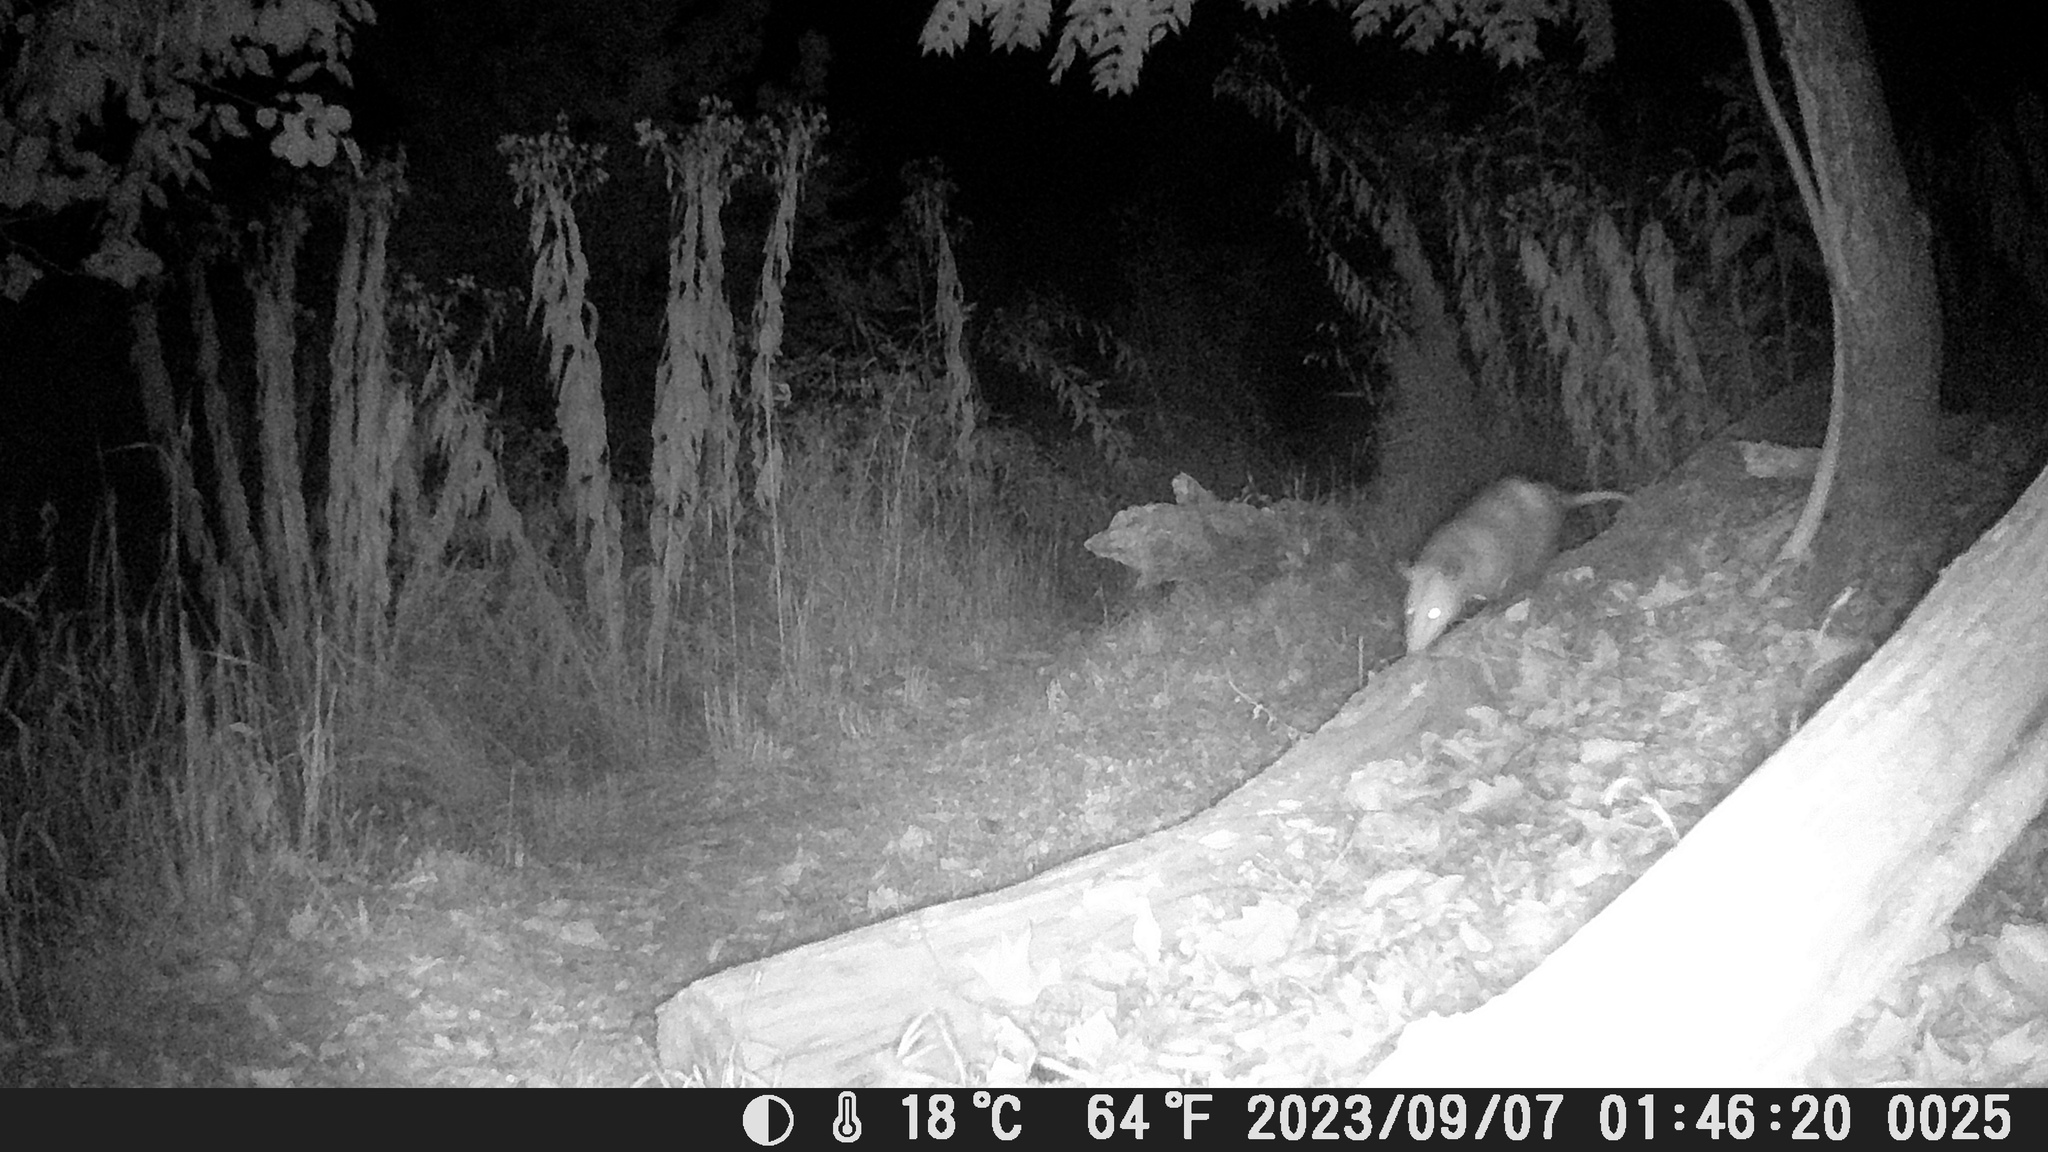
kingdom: Animalia
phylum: Chordata
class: Mammalia
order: Didelphimorphia
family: Didelphidae
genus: Didelphis
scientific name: Didelphis virginiana
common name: Virginia opossum
